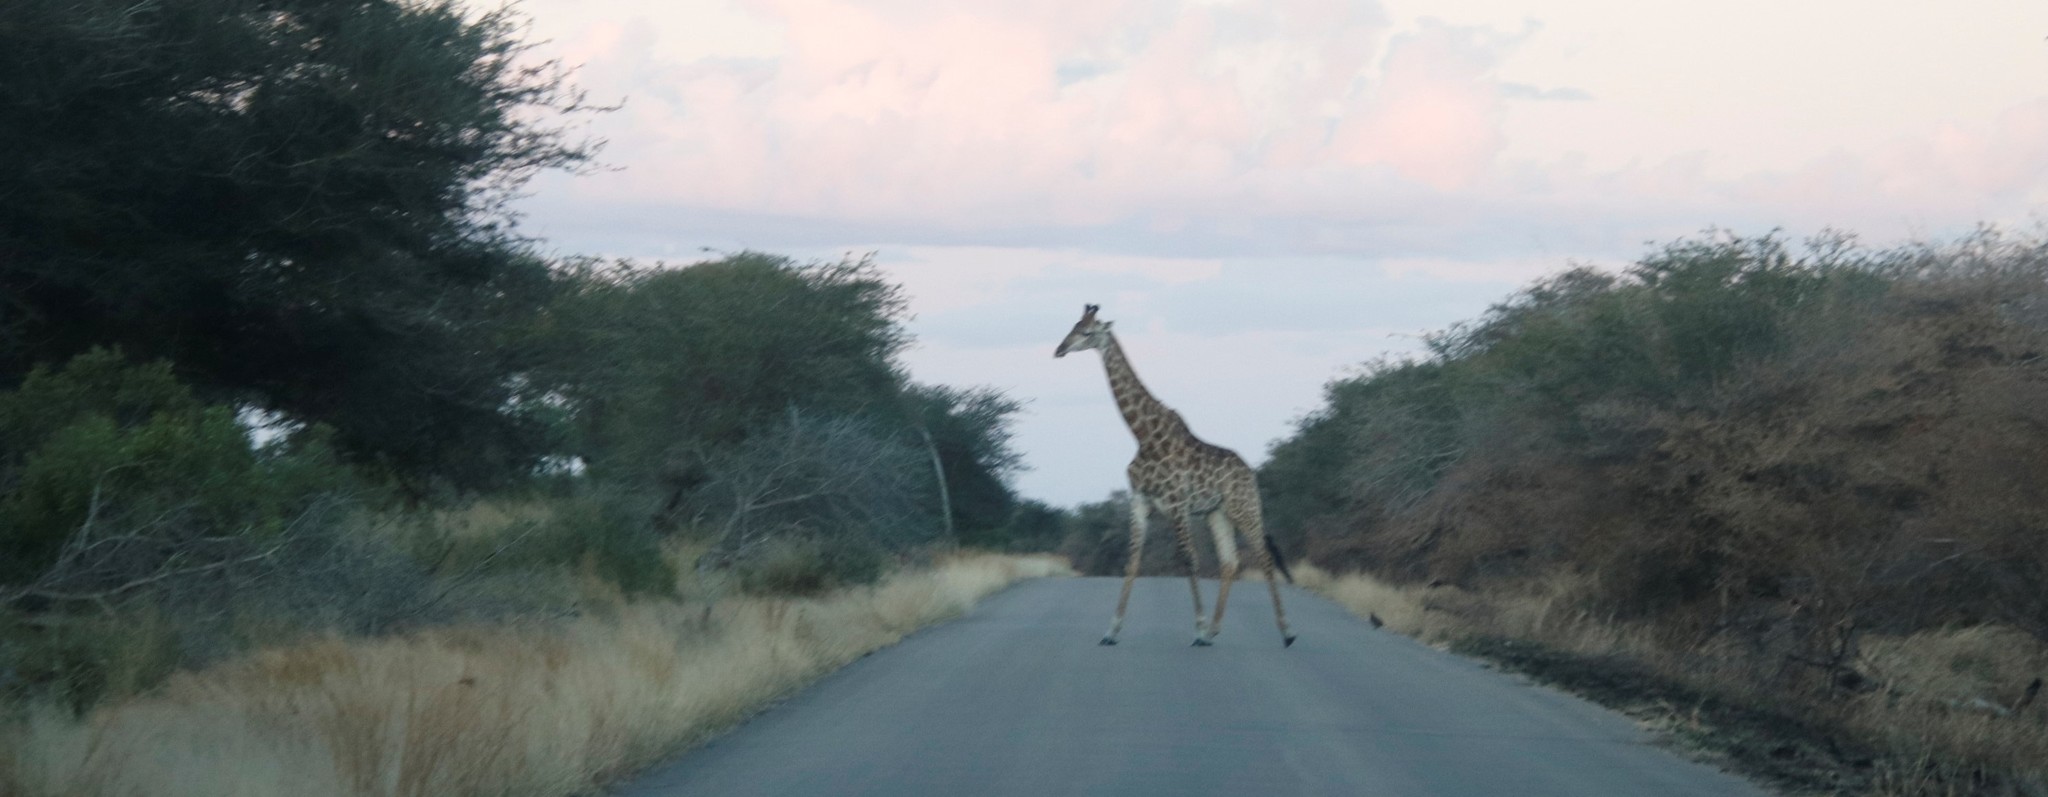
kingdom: Animalia
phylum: Chordata
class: Mammalia
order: Artiodactyla
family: Giraffidae
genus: Giraffa
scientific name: Giraffa giraffa
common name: Southern giraffe
